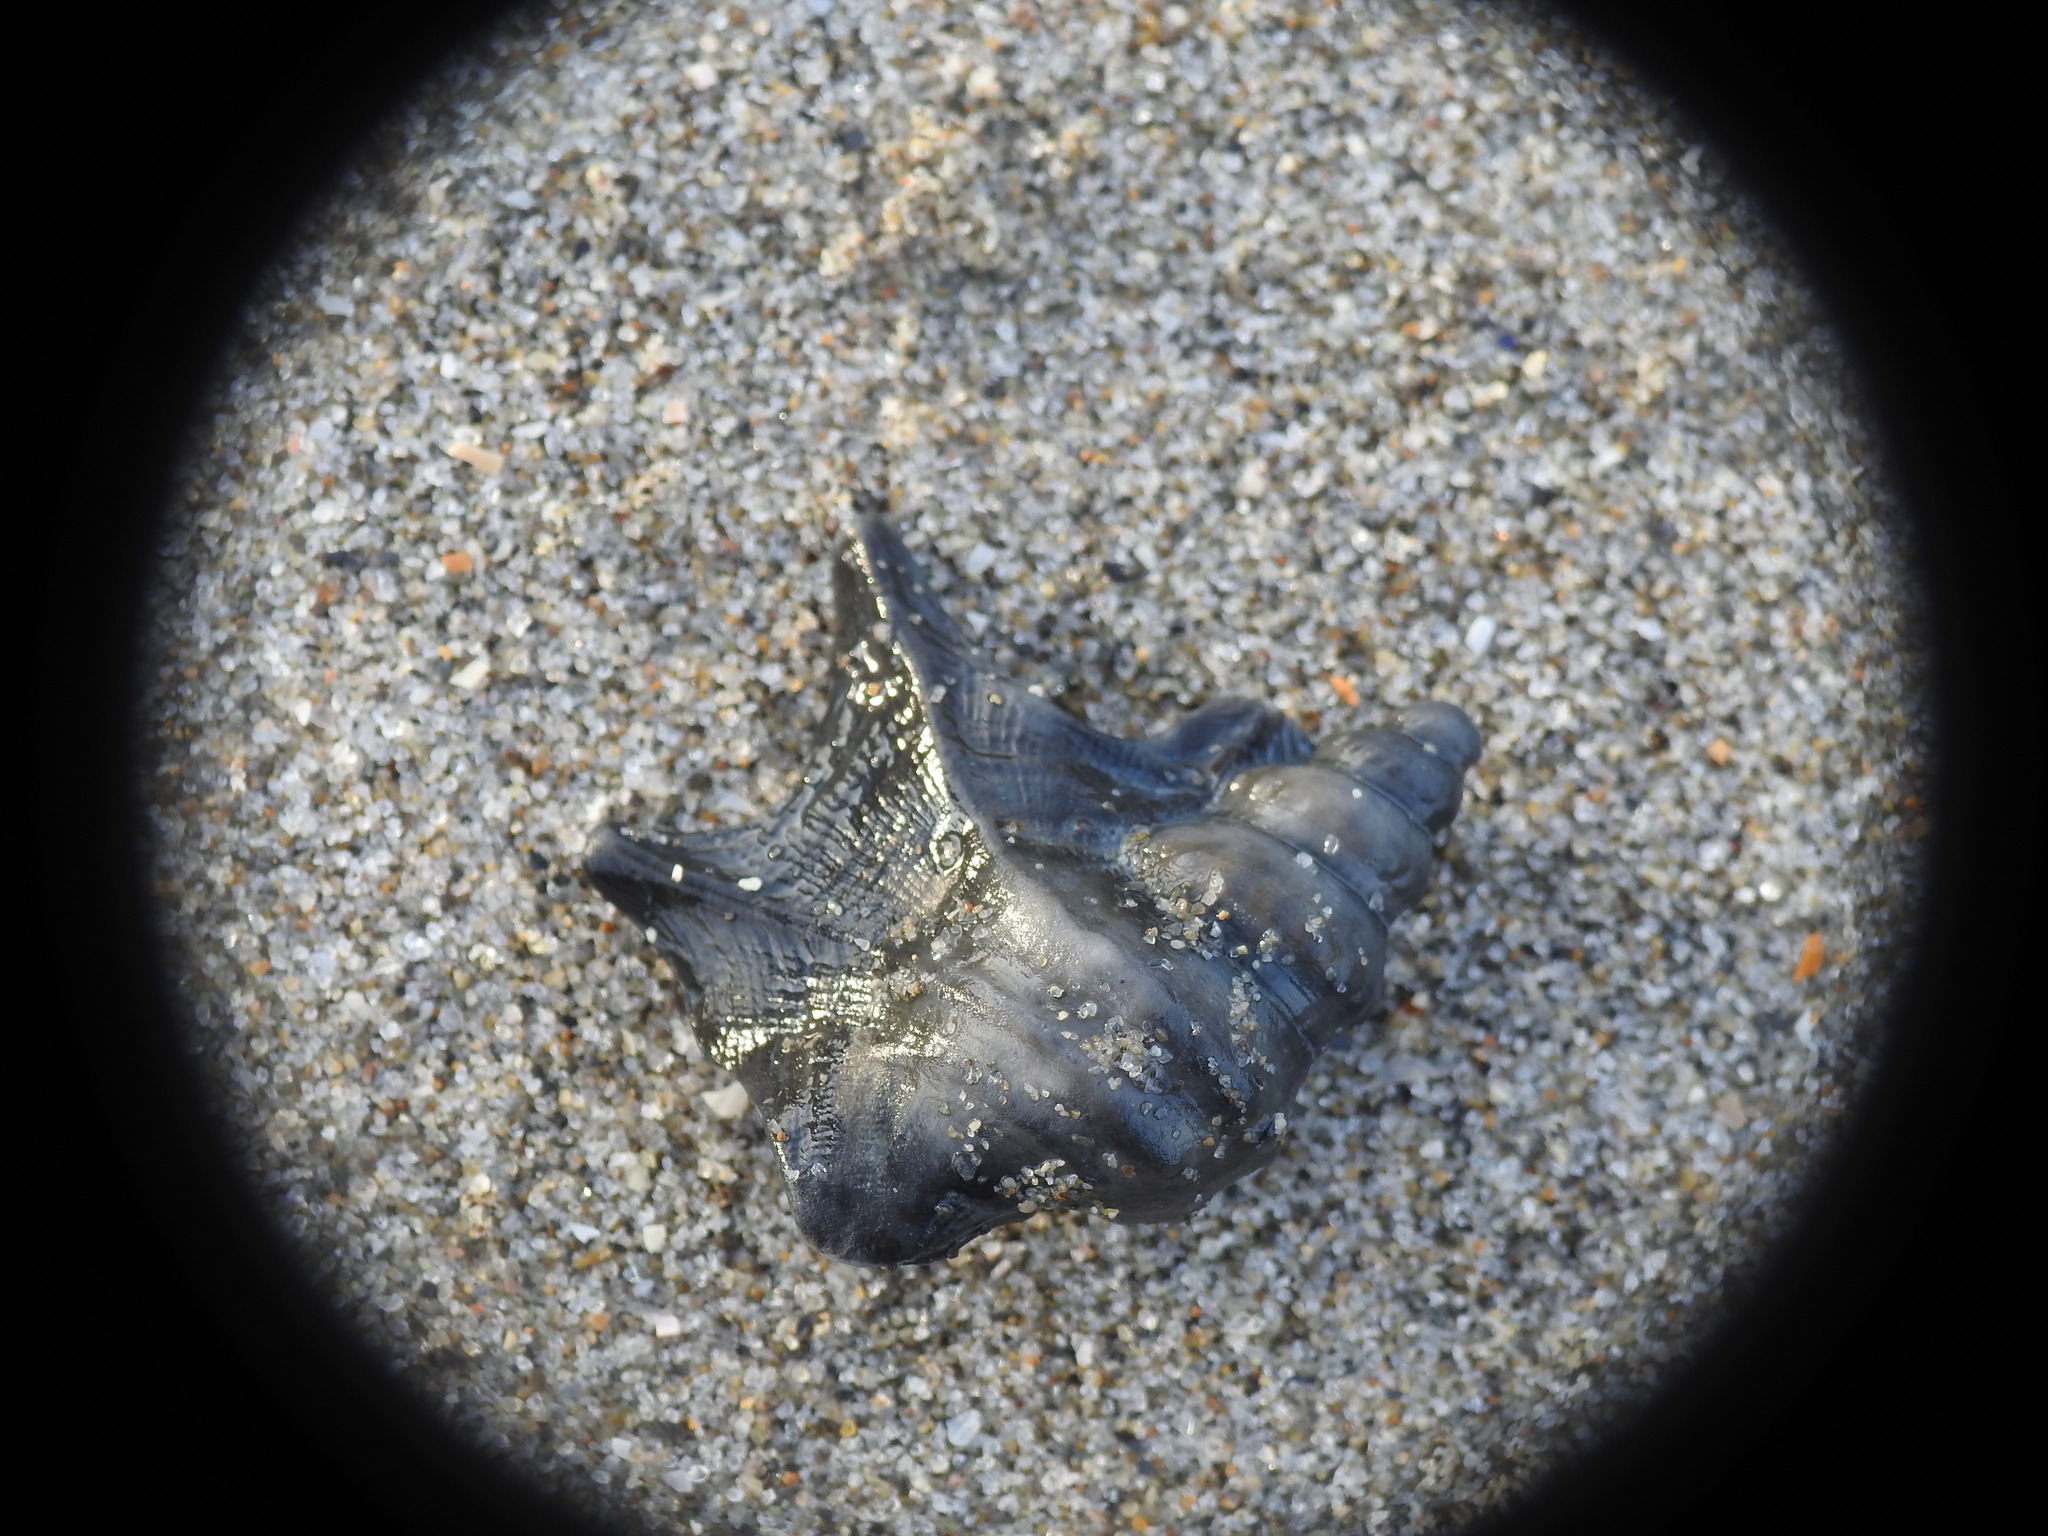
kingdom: Animalia
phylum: Mollusca
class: Gastropoda
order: Littorinimorpha
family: Aporrhaidae
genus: Aporrhais
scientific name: Aporrhais pespelecani
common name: Common pelican’s foot
